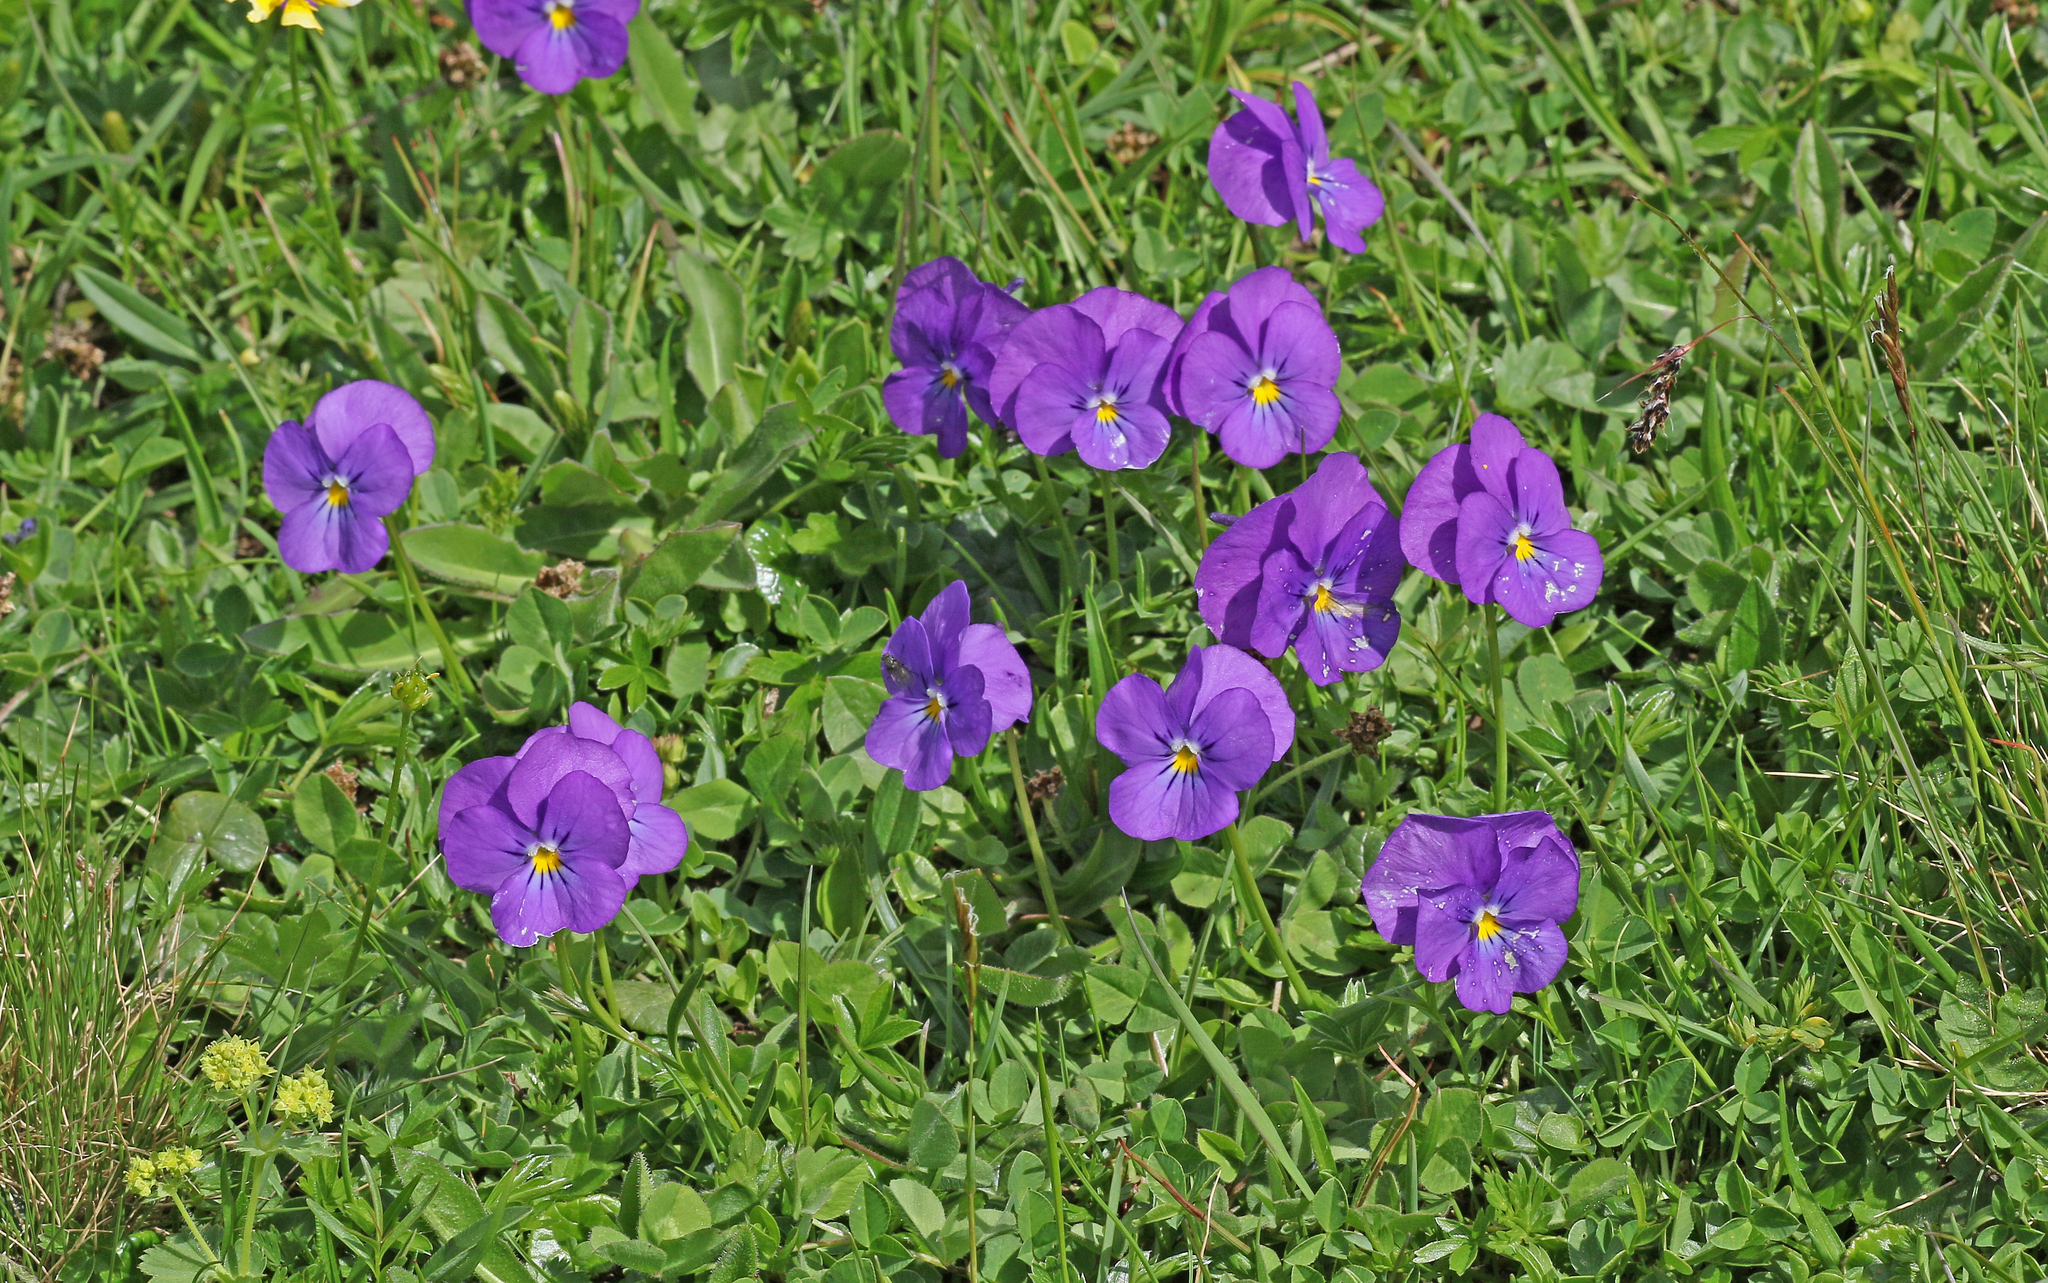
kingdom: Plantae
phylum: Tracheophyta
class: Magnoliopsida
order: Malpighiales
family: Violaceae
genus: Viola
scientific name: Viola calcarata
